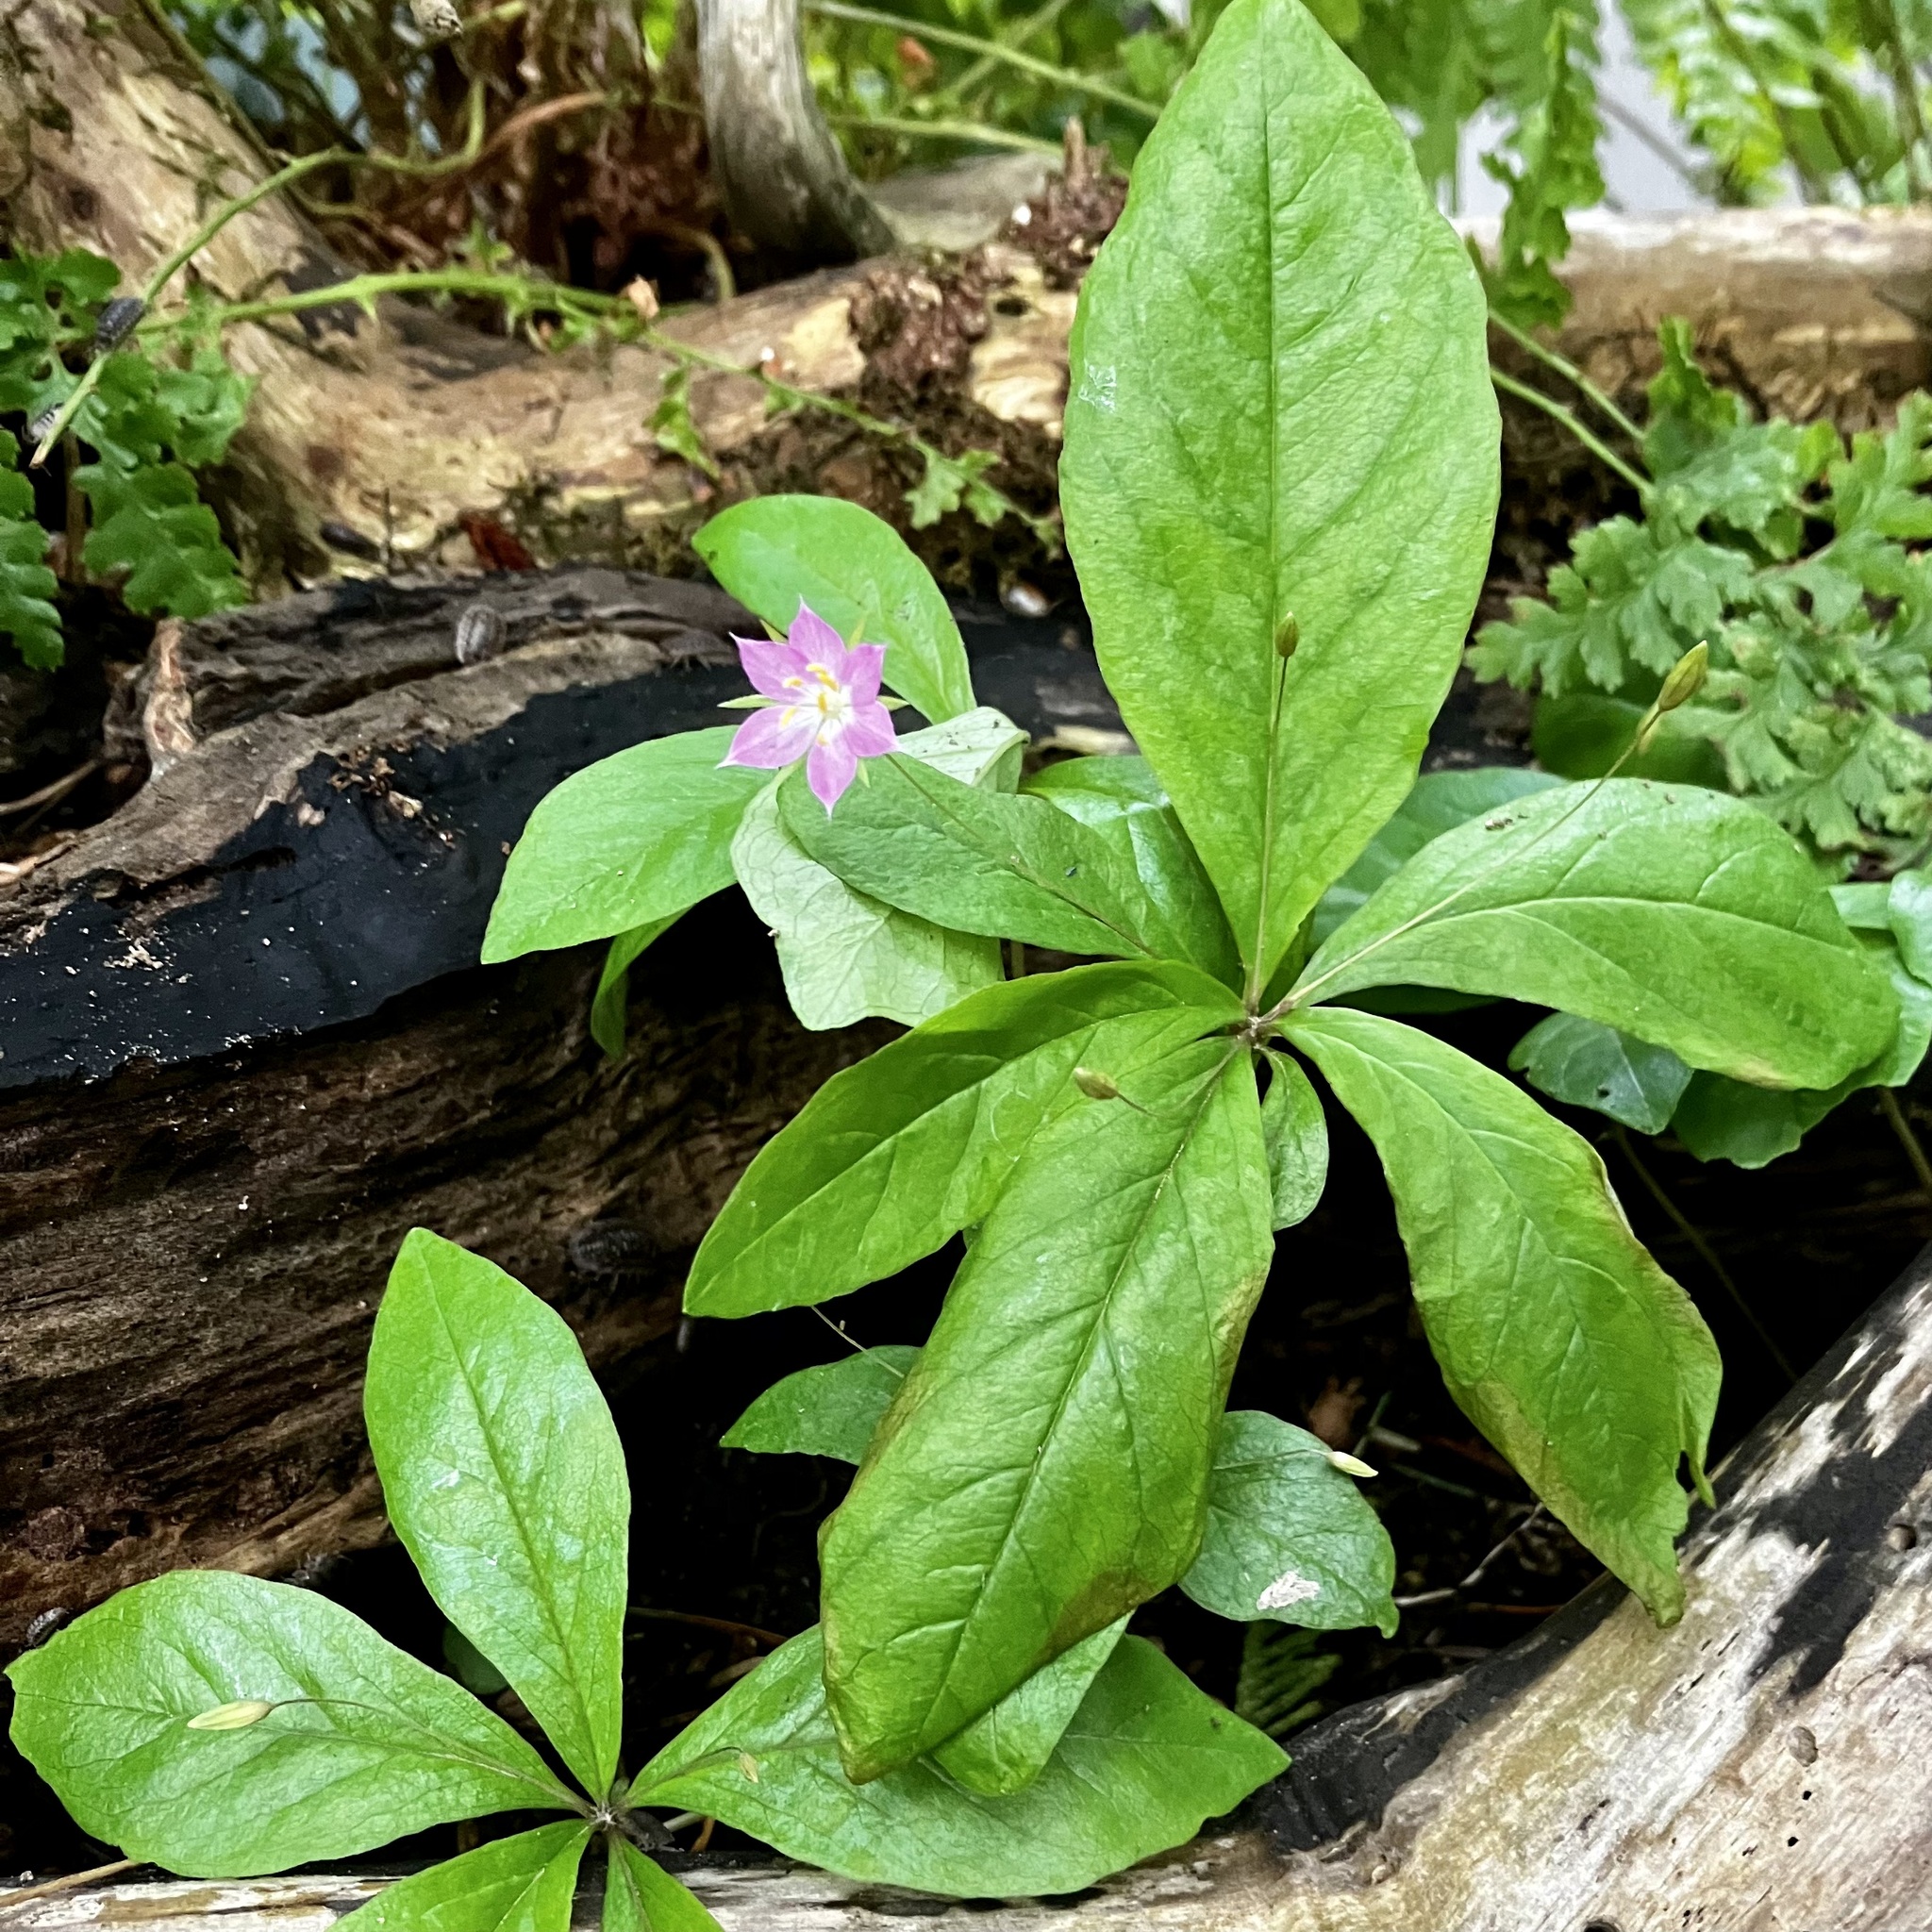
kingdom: Plantae
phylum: Tracheophyta
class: Magnoliopsida
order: Ericales
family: Primulaceae
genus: Lysimachia
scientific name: Lysimachia latifolia
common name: Pacific starflower
